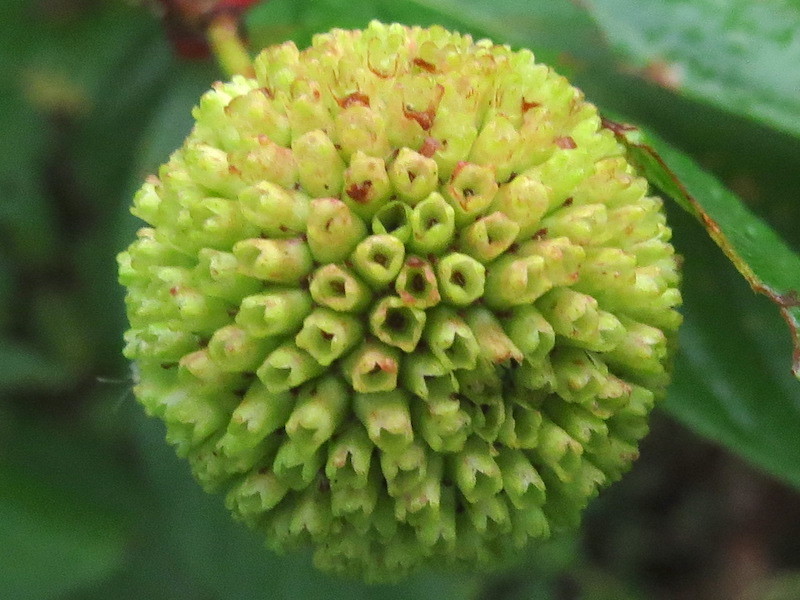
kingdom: Plantae
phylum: Tracheophyta
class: Magnoliopsida
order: Gentianales
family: Rubiaceae
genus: Cephalanthus
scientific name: Cephalanthus occidentalis
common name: Button-willow
